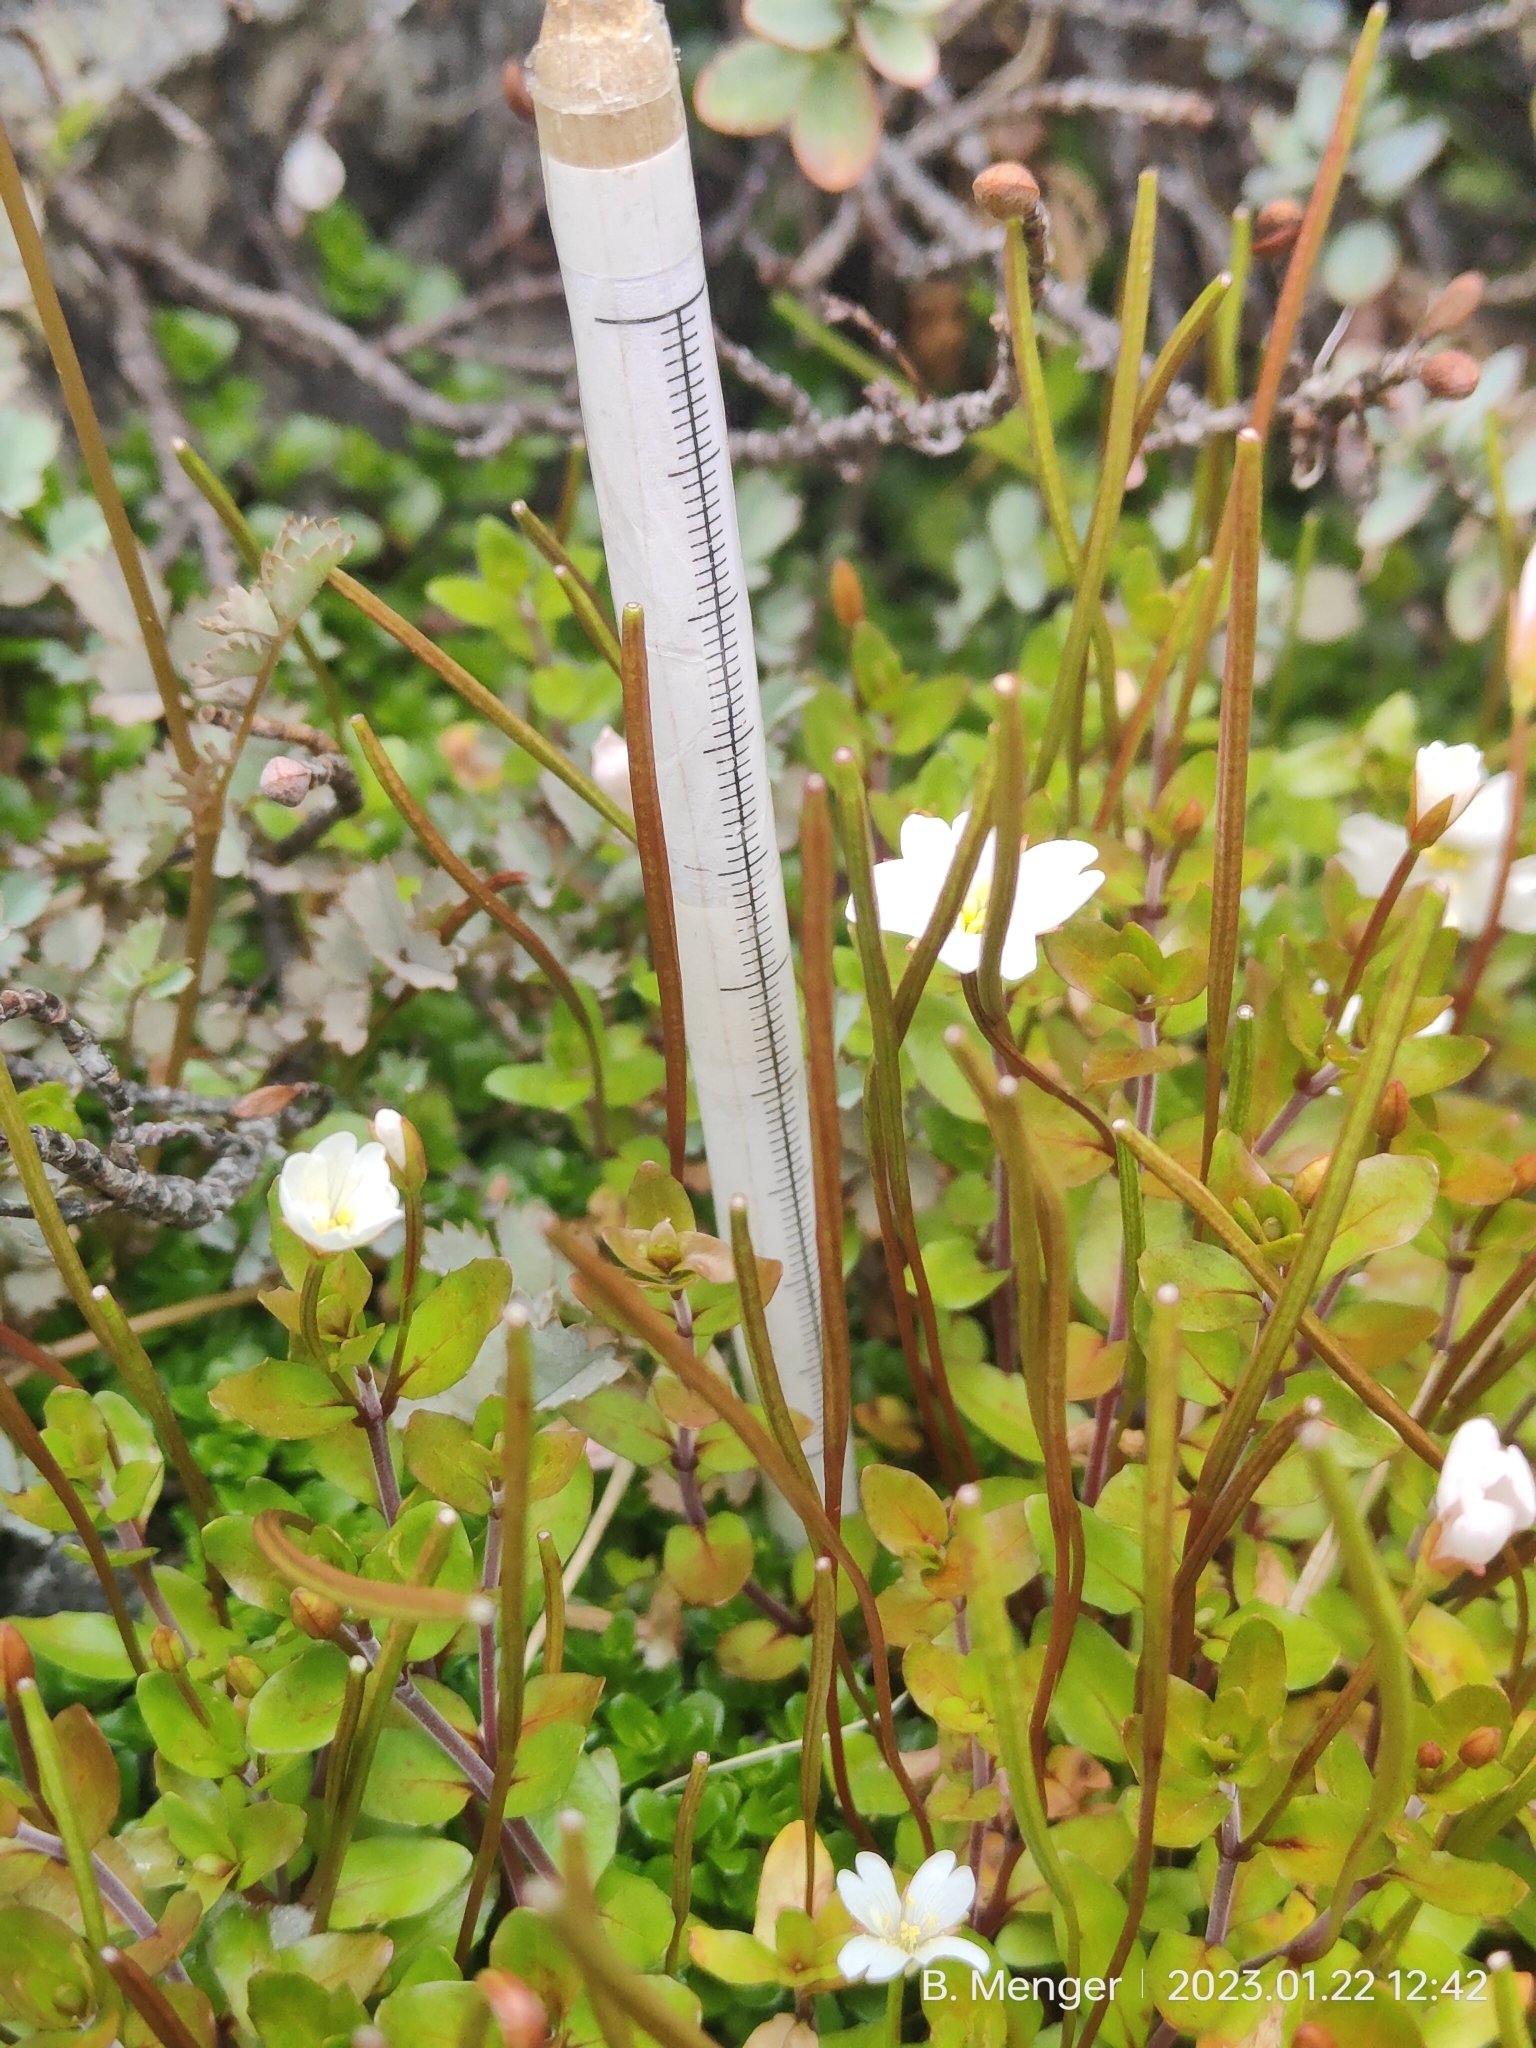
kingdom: Plantae
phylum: Tracheophyta
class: Magnoliopsida
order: Myrtales
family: Onagraceae
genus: Epilobium
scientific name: Epilobium macropus
